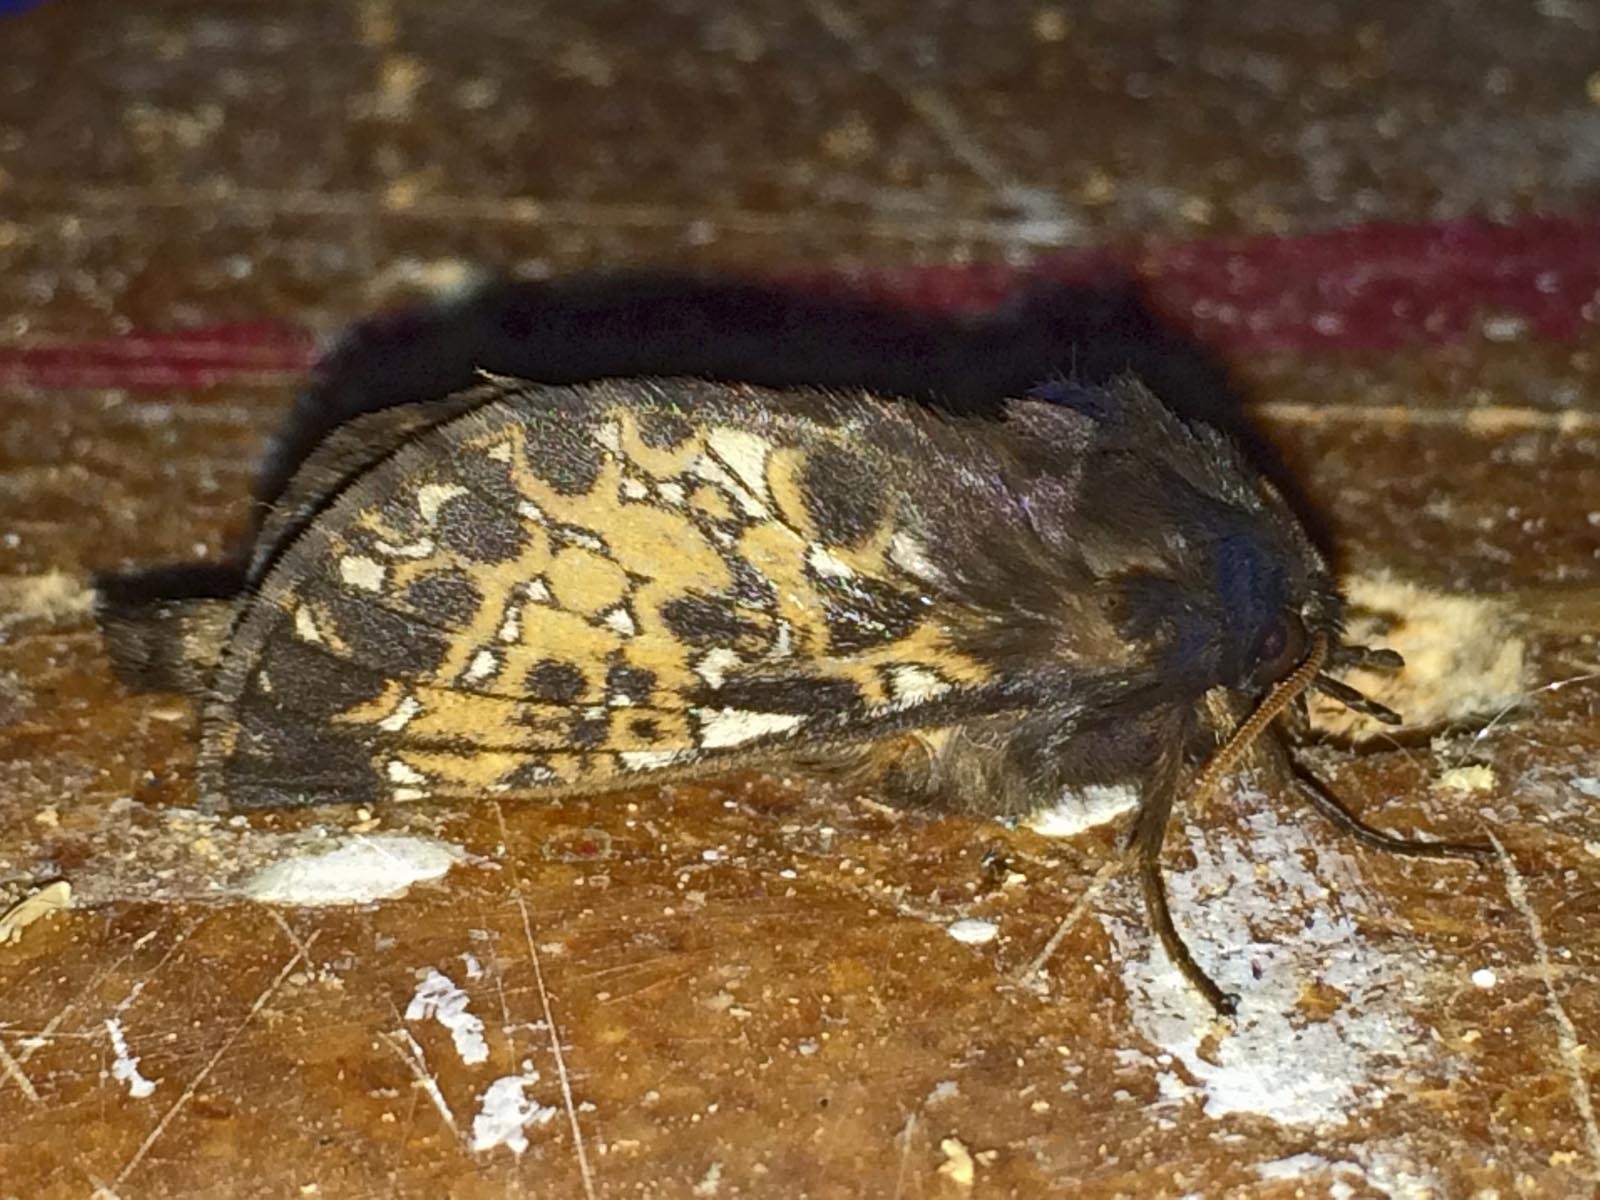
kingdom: Animalia
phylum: Arthropoda
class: Insecta
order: Lepidoptera
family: Hepialidae
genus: Cladoxycanus
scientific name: Cladoxycanus minos
